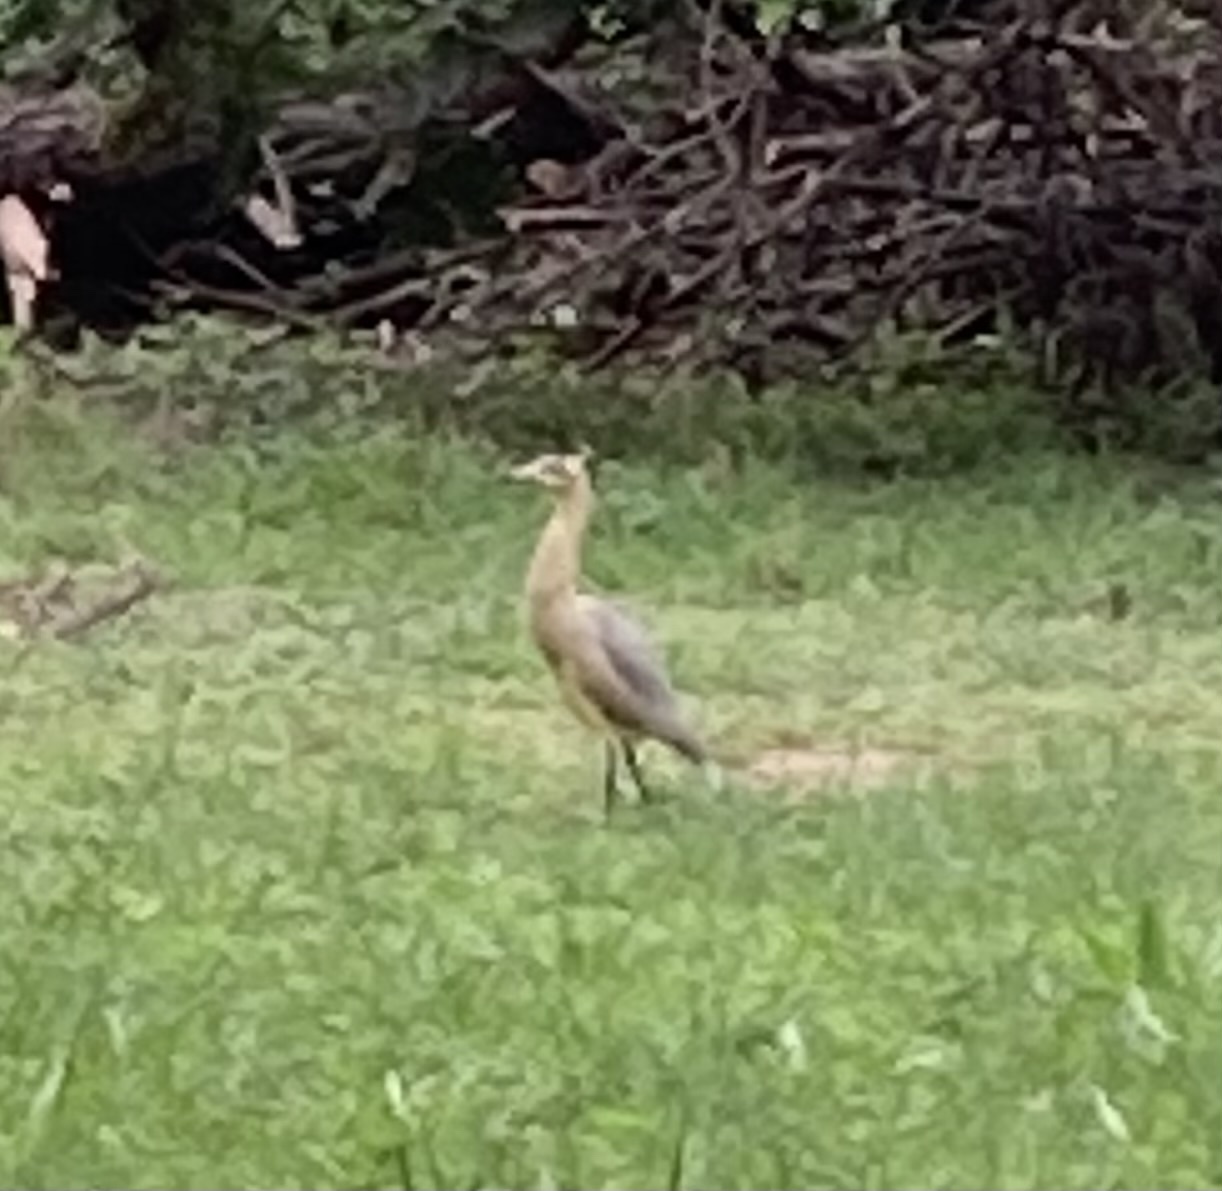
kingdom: Animalia
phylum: Chordata
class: Aves
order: Pelecaniformes
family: Ardeidae
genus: Syrigma
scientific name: Syrigma sibilatrix
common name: Whistling heron
